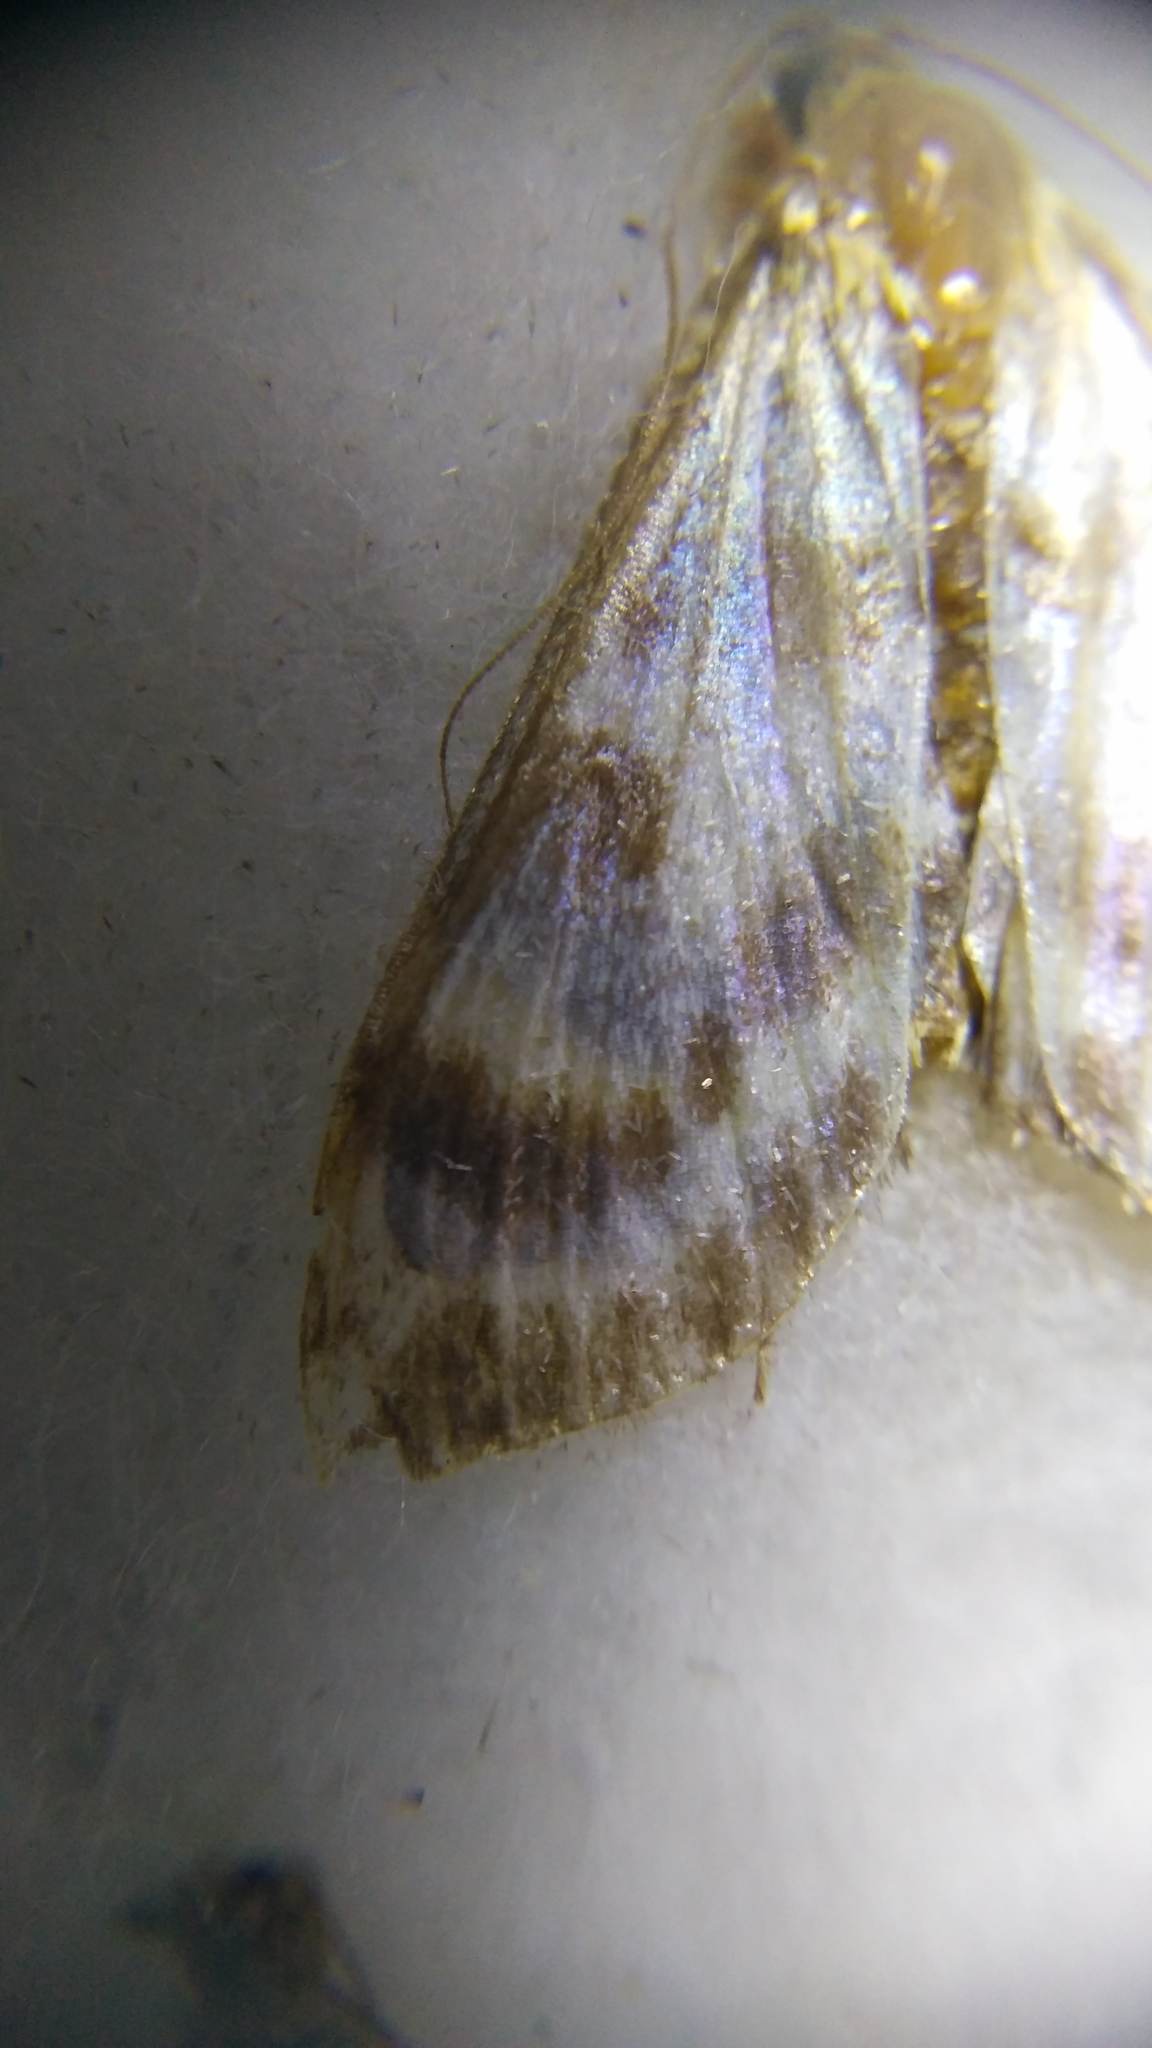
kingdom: Animalia
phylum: Arthropoda
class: Insecta
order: Lepidoptera
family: Crambidae
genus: Anania
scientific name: Anania hortulata
